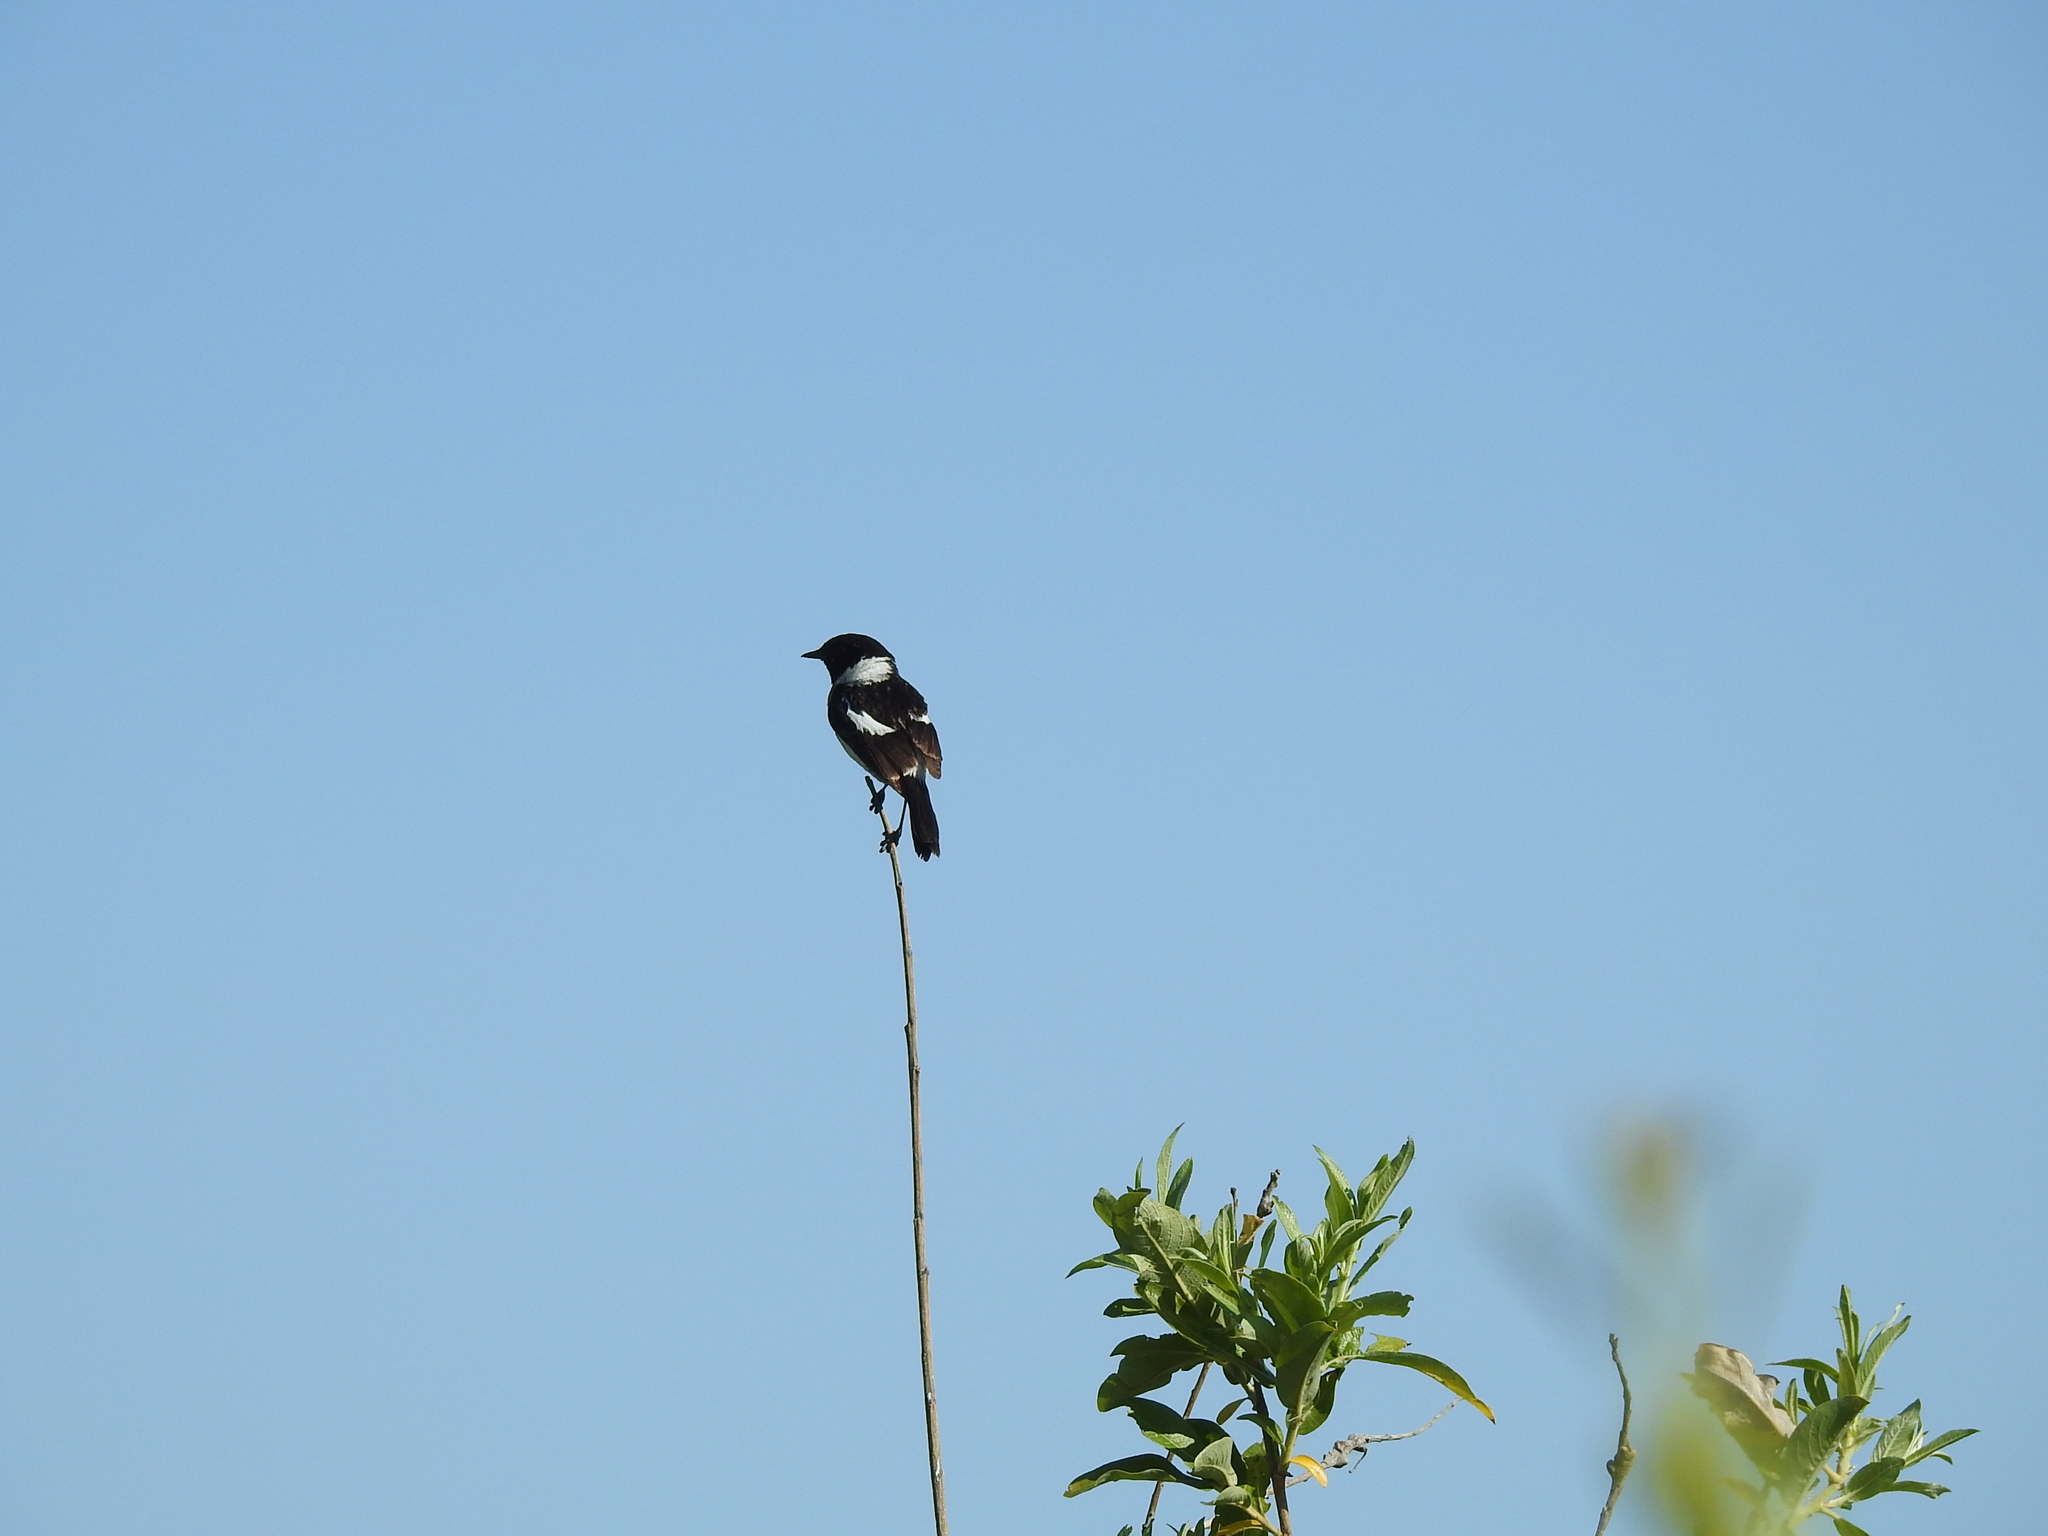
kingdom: Animalia
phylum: Chordata
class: Aves
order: Passeriformes
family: Muscicapidae
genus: Saxicola
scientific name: Saxicola maurus
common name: Siberian stonechat
